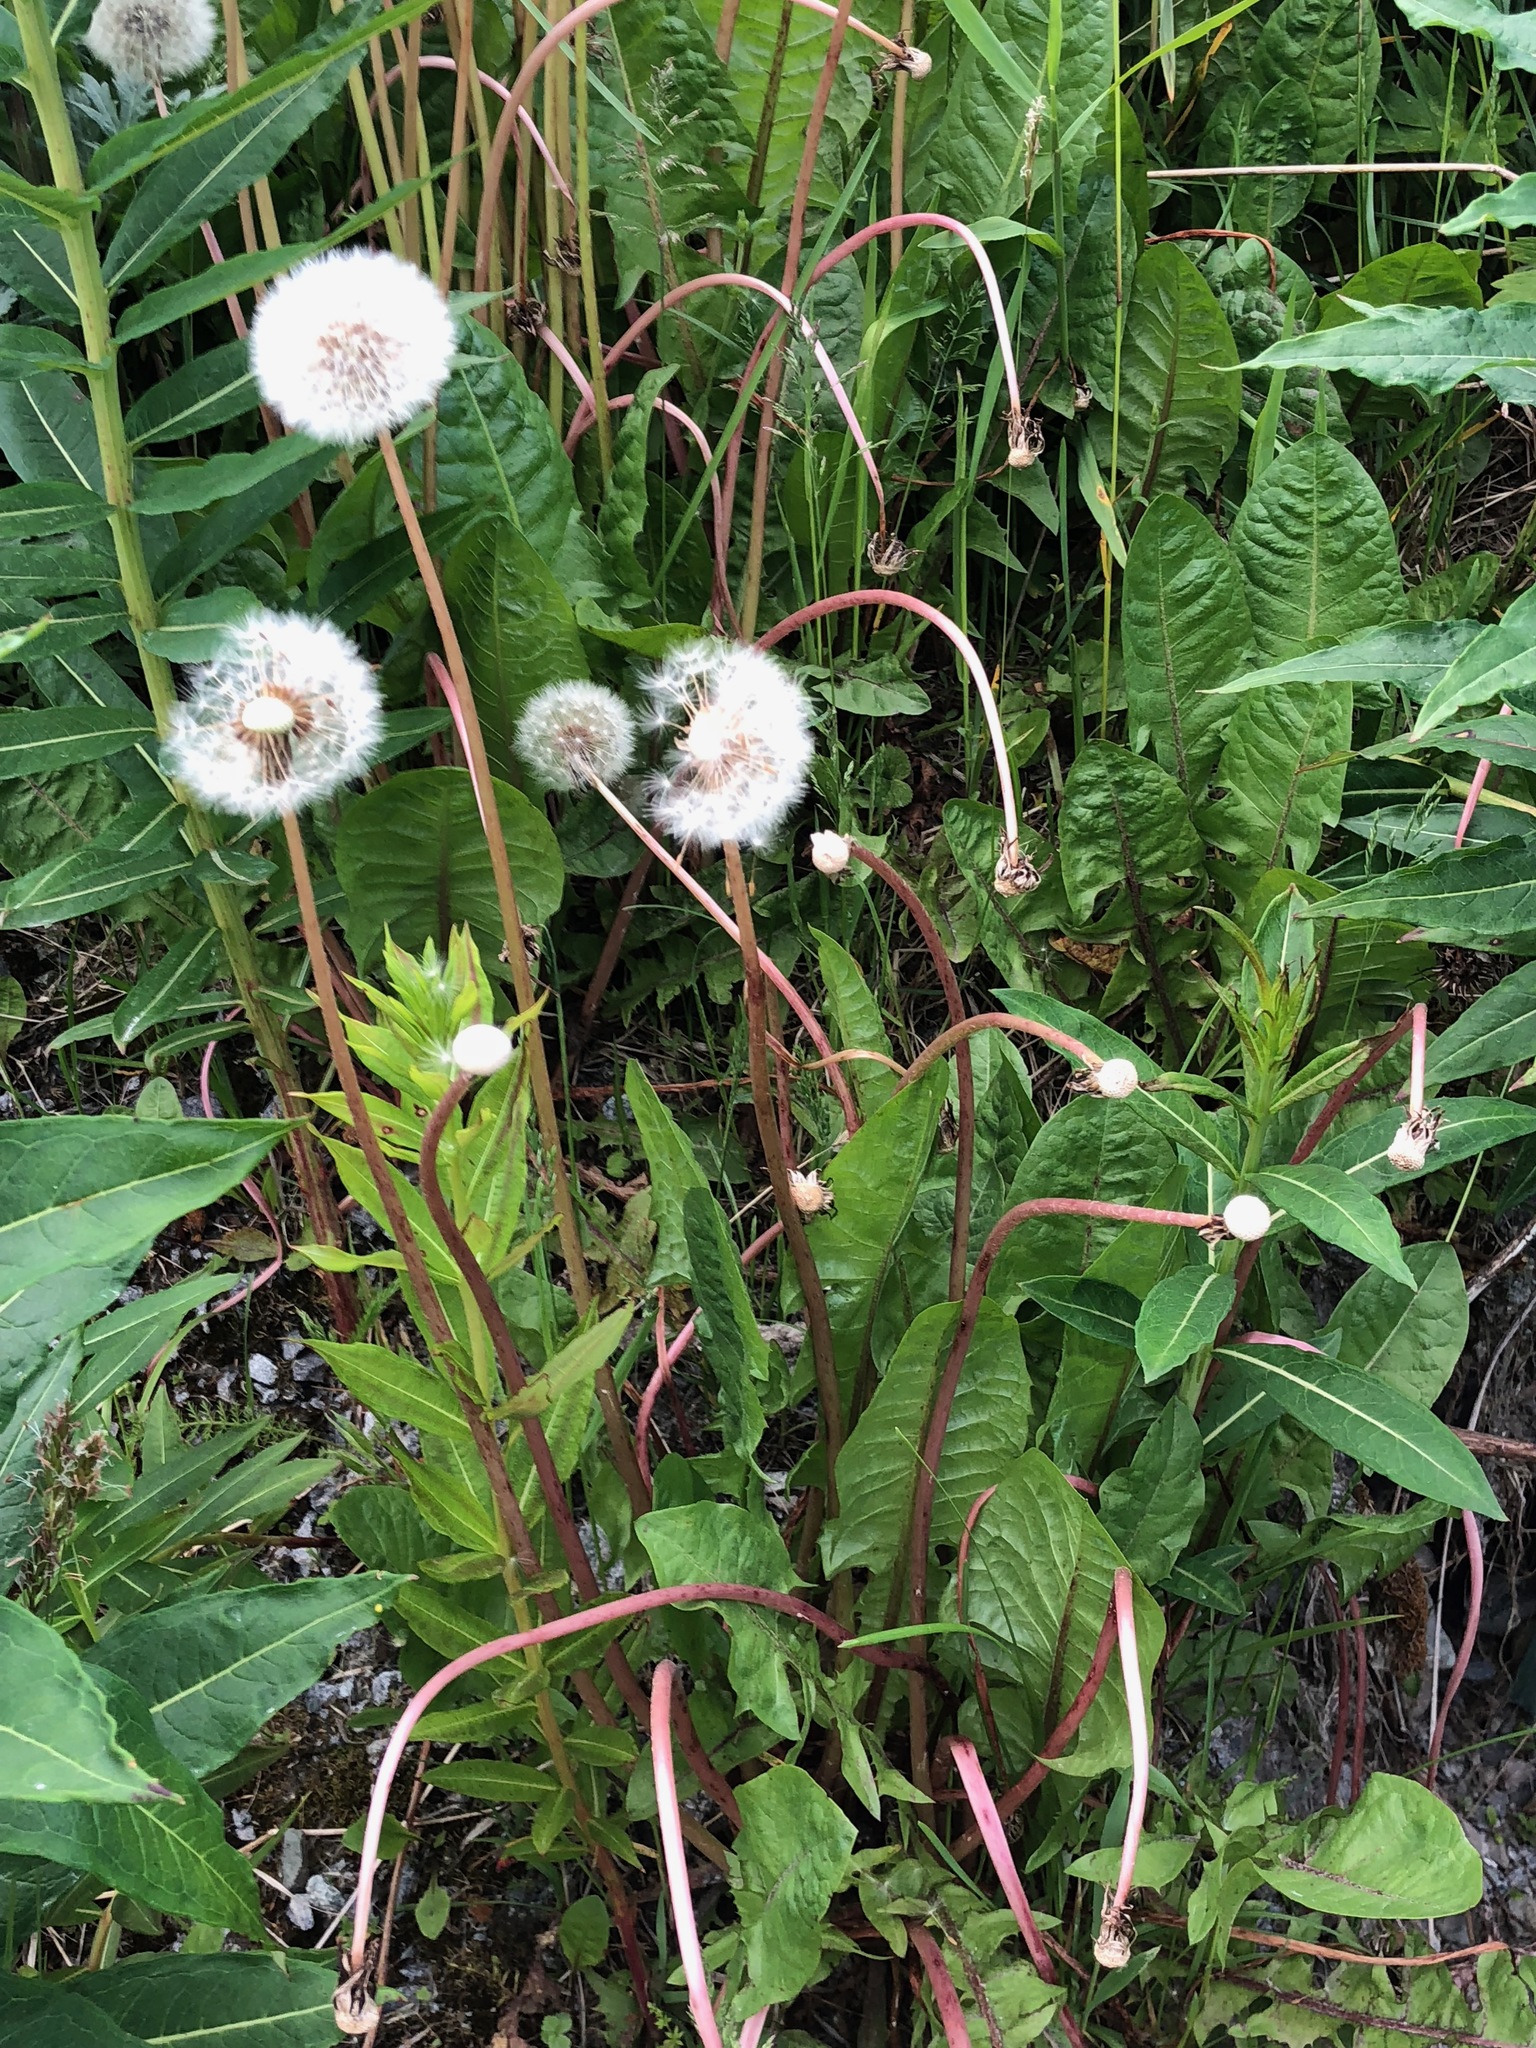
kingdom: Plantae
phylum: Tracheophyta
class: Magnoliopsida
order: Asterales
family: Asteraceae
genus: Taraxacum
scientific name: Taraxacum officinale
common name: Common dandelion
